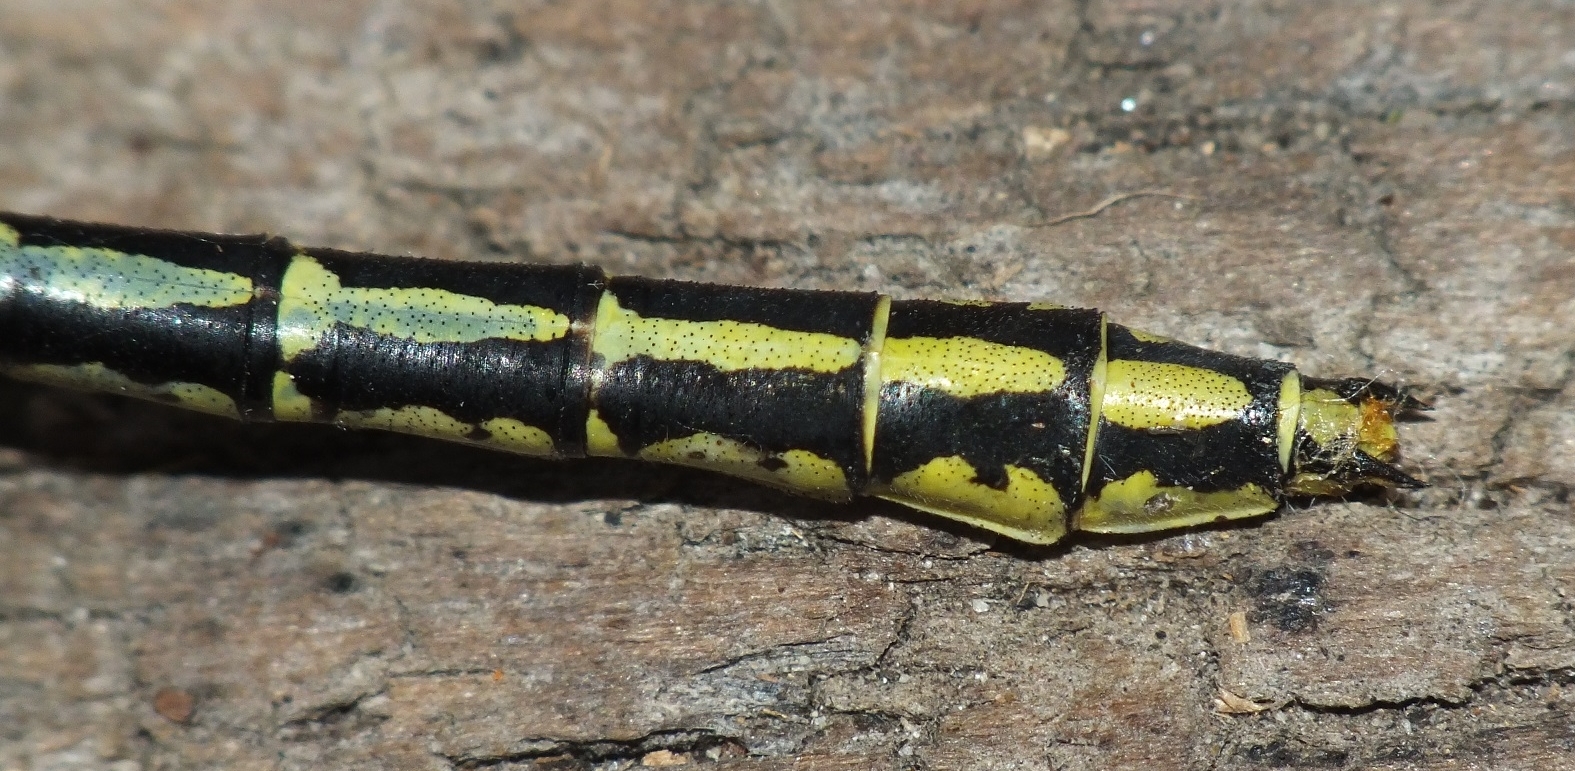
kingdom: Animalia
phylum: Arthropoda
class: Insecta
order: Odonata
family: Gomphidae
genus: Stylurus
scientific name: Stylurus flavipes
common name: River clubtail
